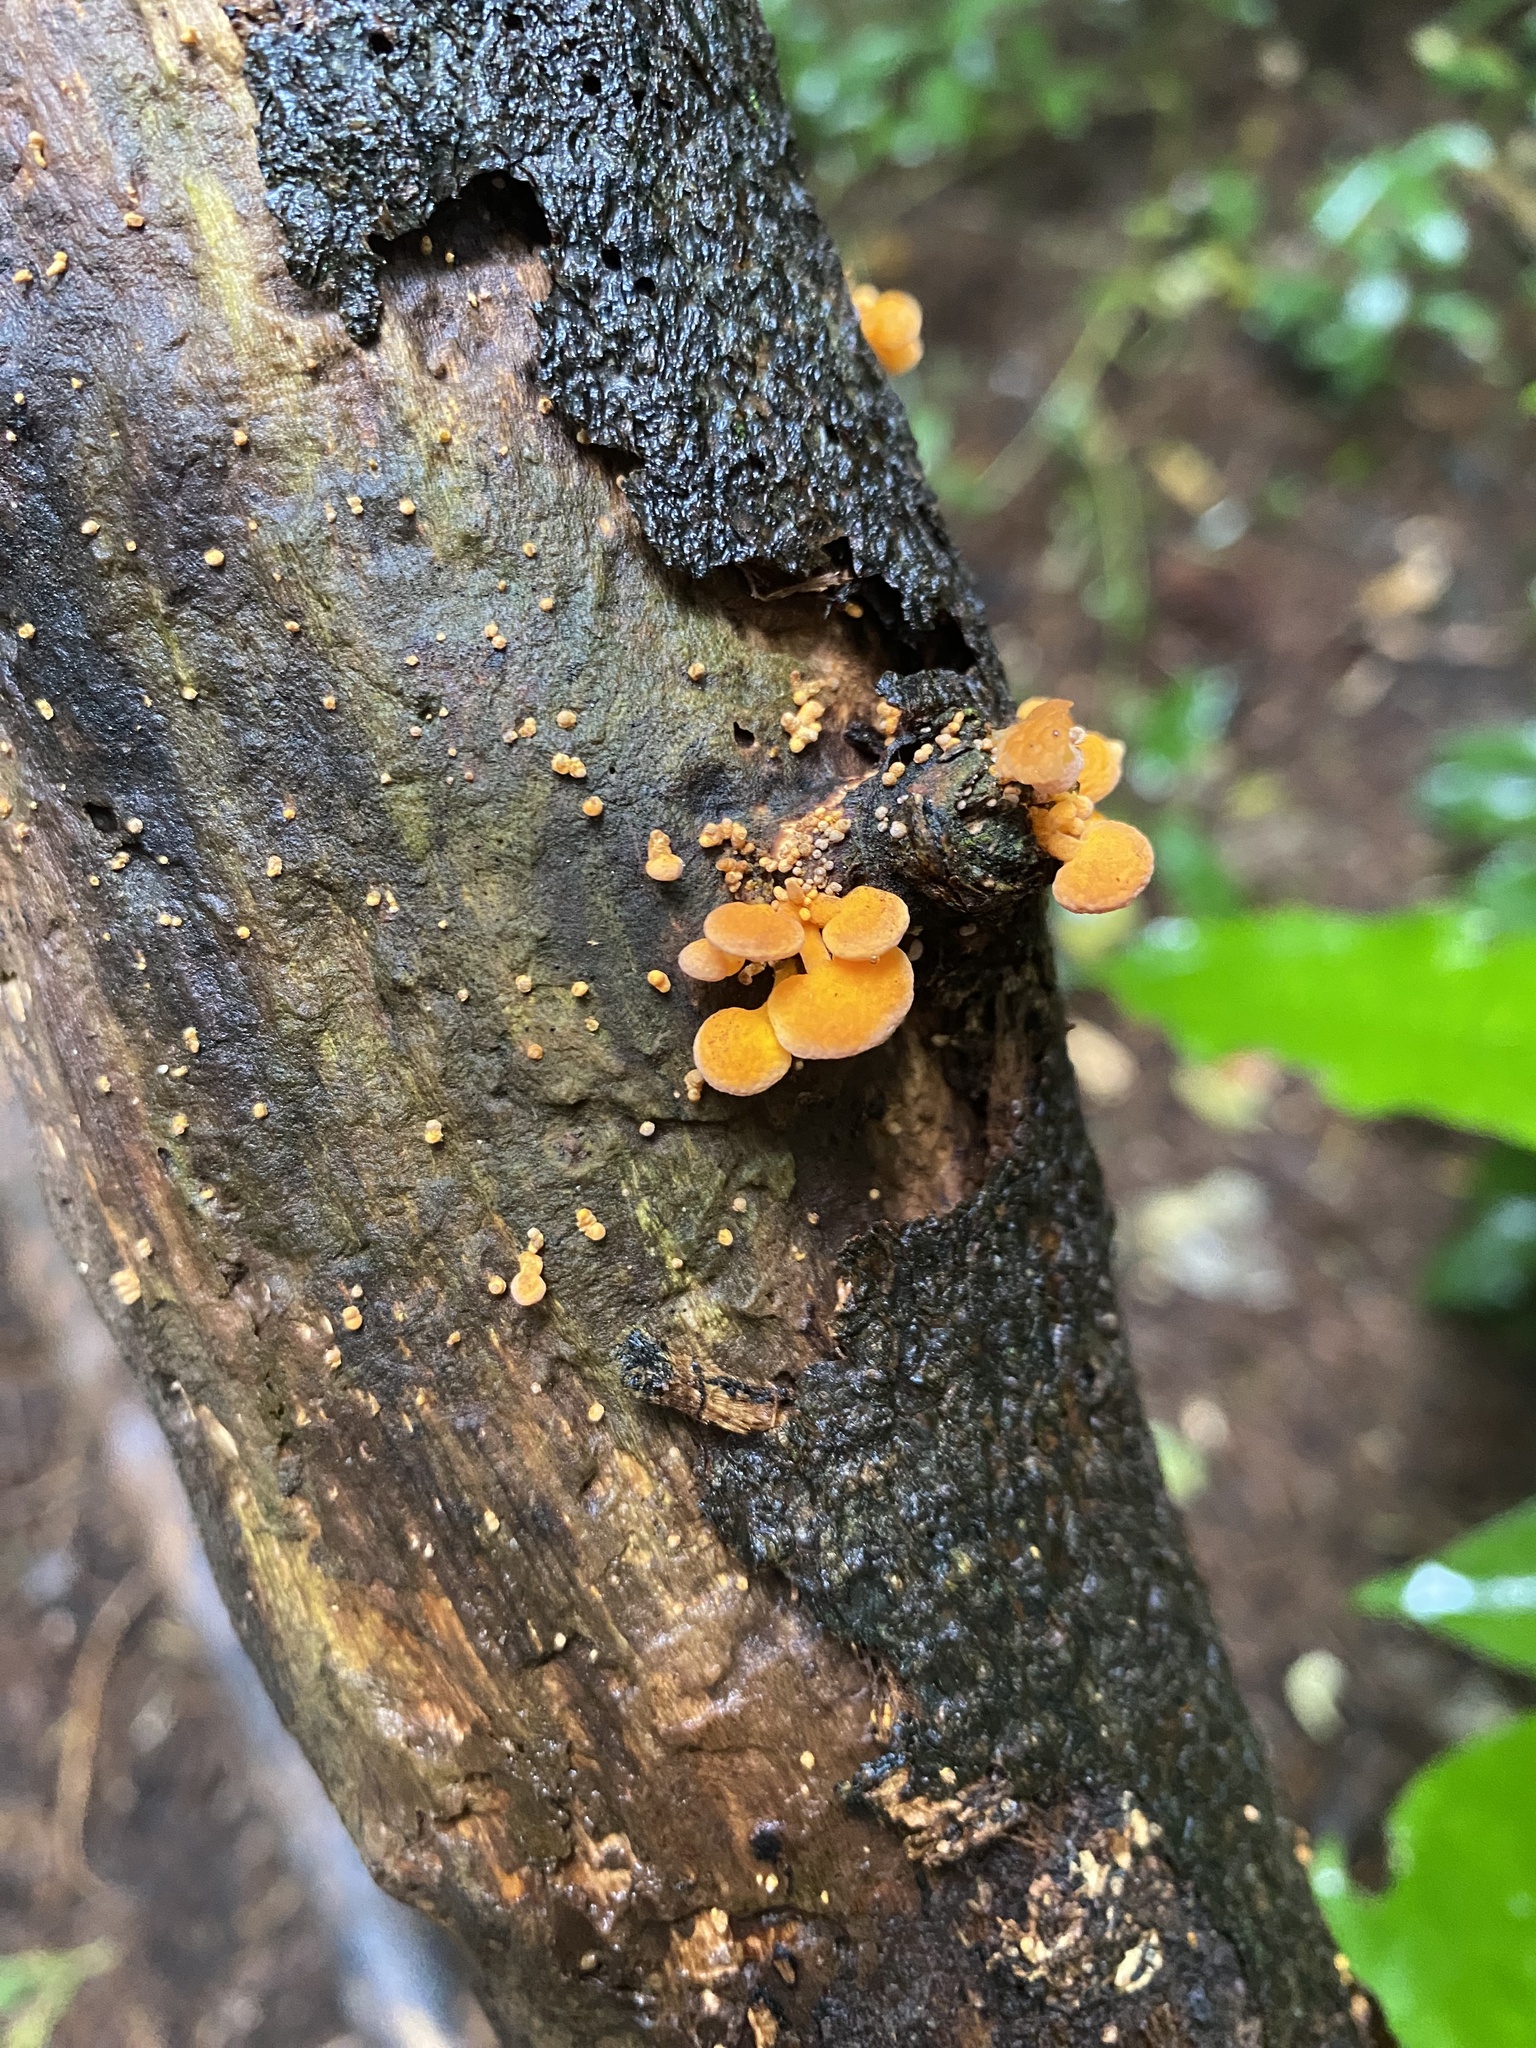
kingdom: Fungi
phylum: Basidiomycota
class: Agaricomycetes
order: Agaricales
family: Mycenaceae
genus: Favolaschia
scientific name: Favolaschia claudopus
